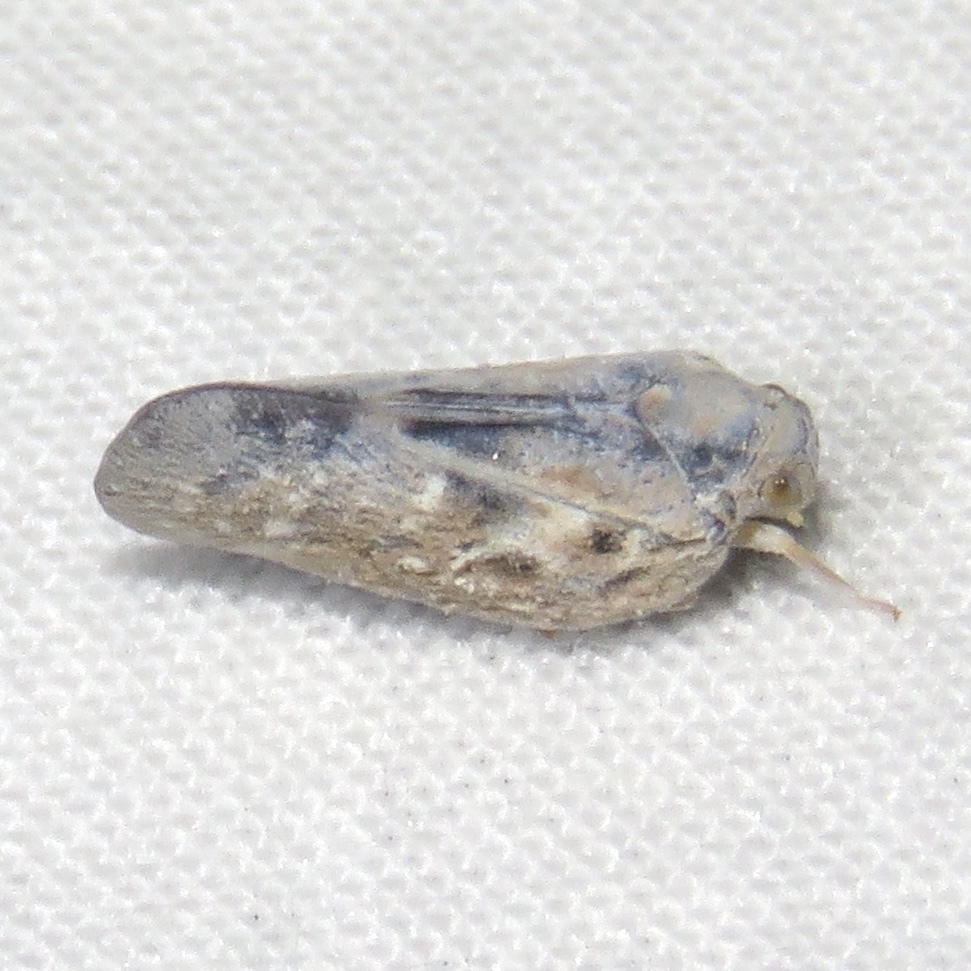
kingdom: Animalia
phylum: Arthropoda
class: Insecta
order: Hemiptera
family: Flatidae
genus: Metcalfa
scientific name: Metcalfa pruinosa
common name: Citrus flatid planthopper
